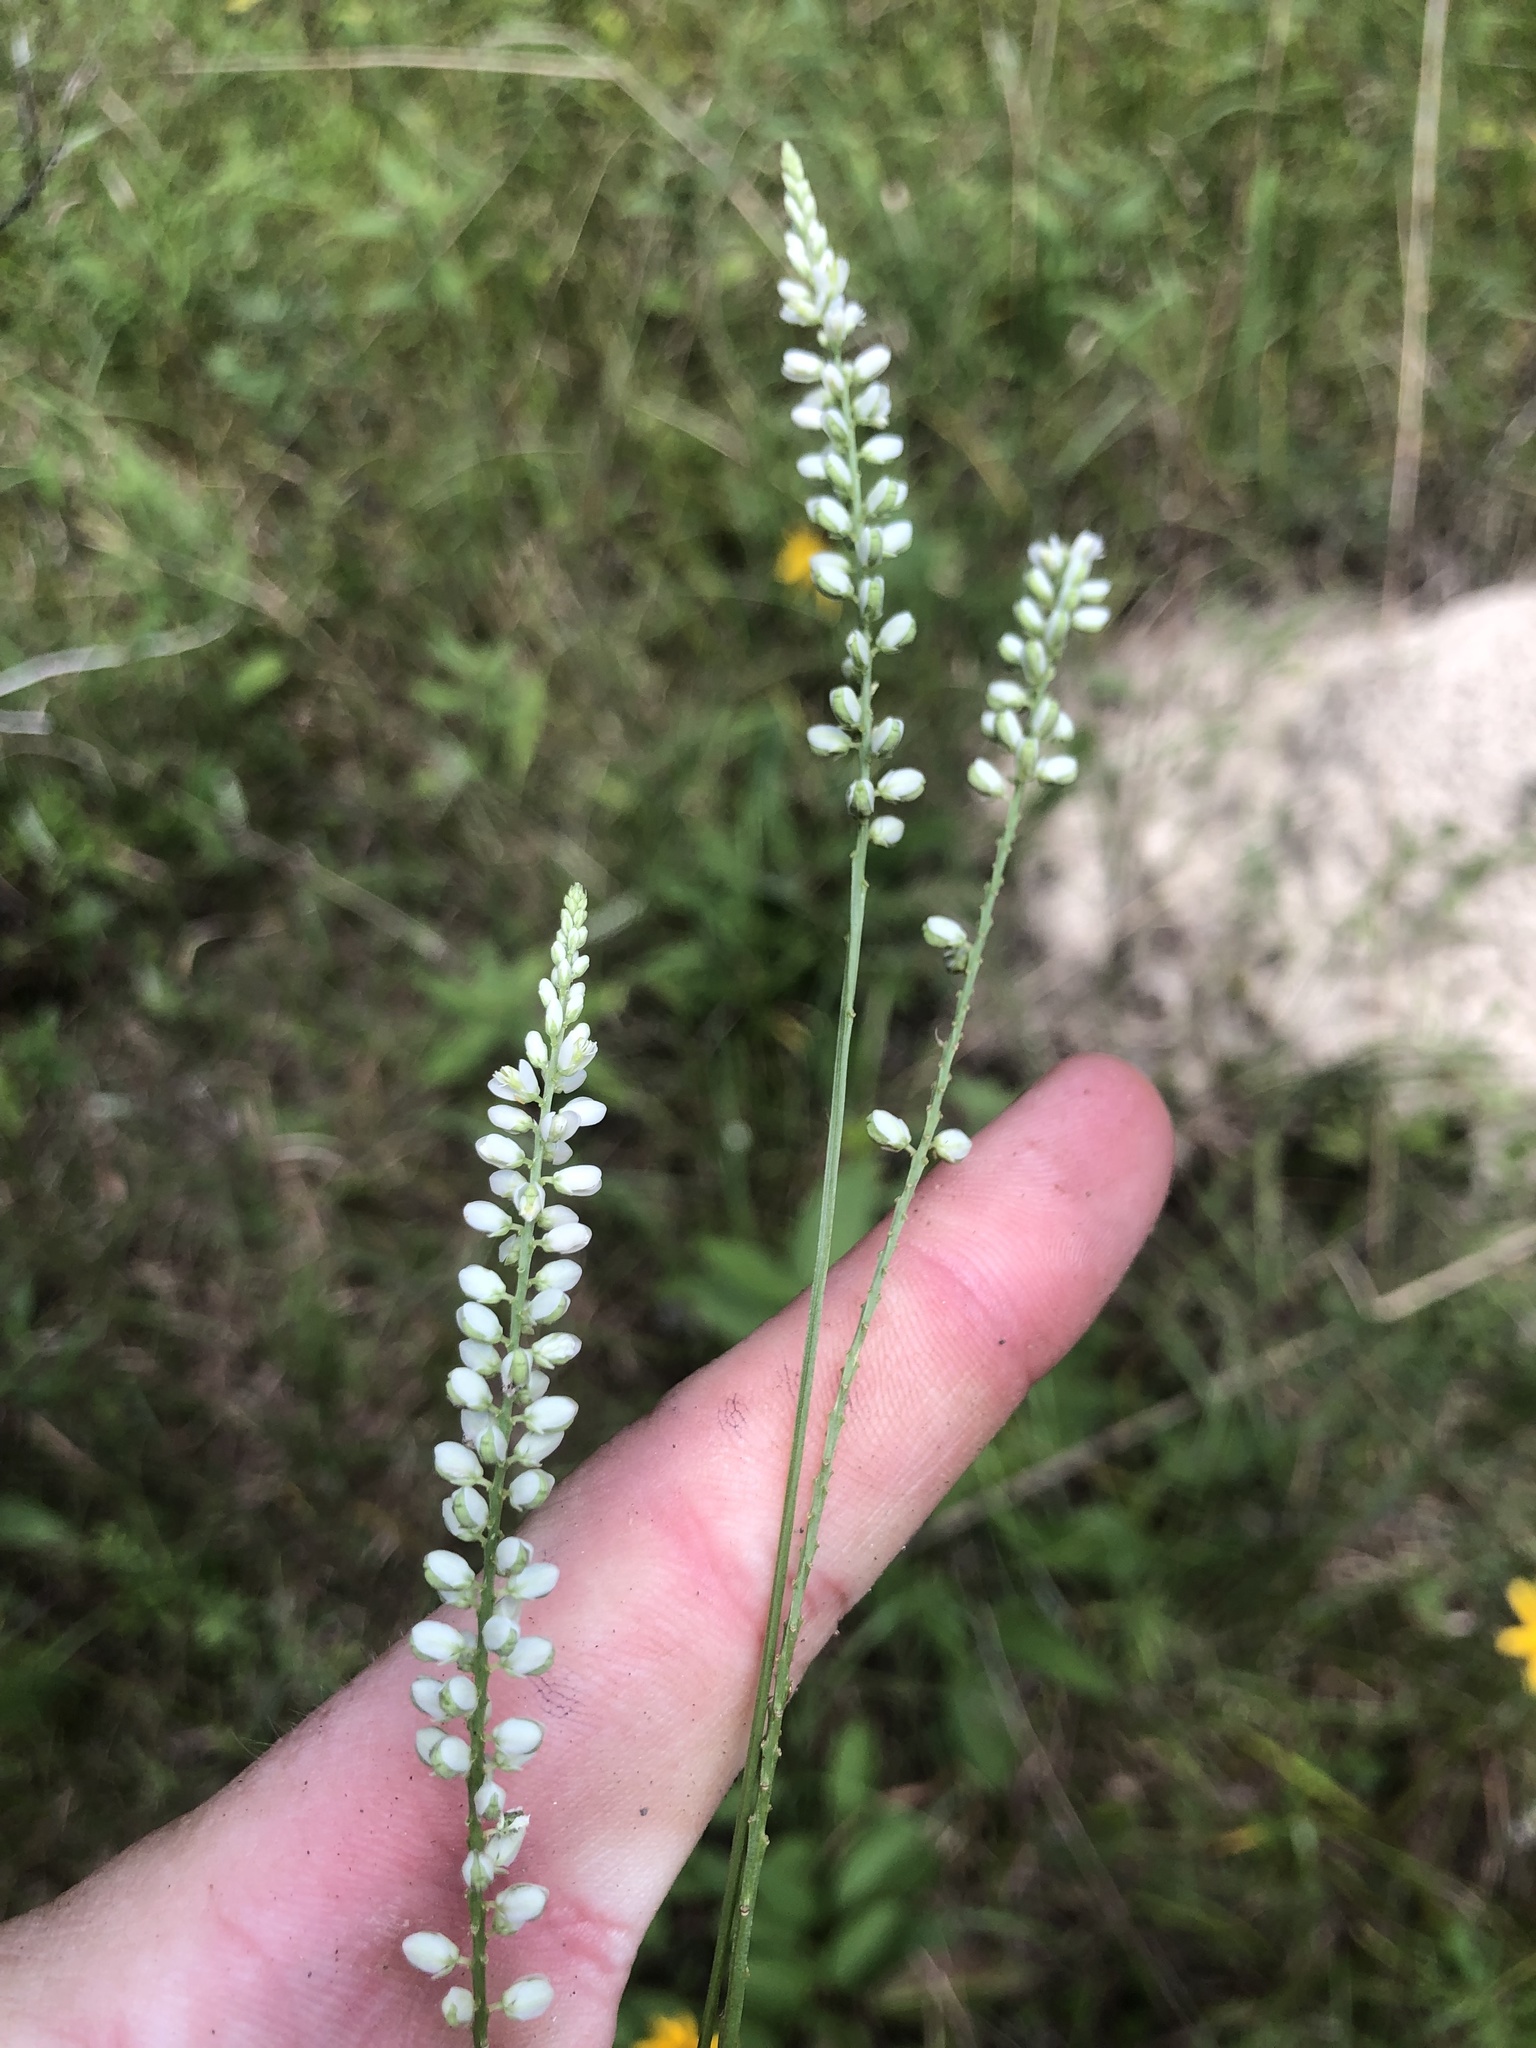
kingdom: Plantae
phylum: Tracheophyta
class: Magnoliopsida
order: Fabales
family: Polygalaceae
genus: Polygala
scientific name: Polygala boykinii
